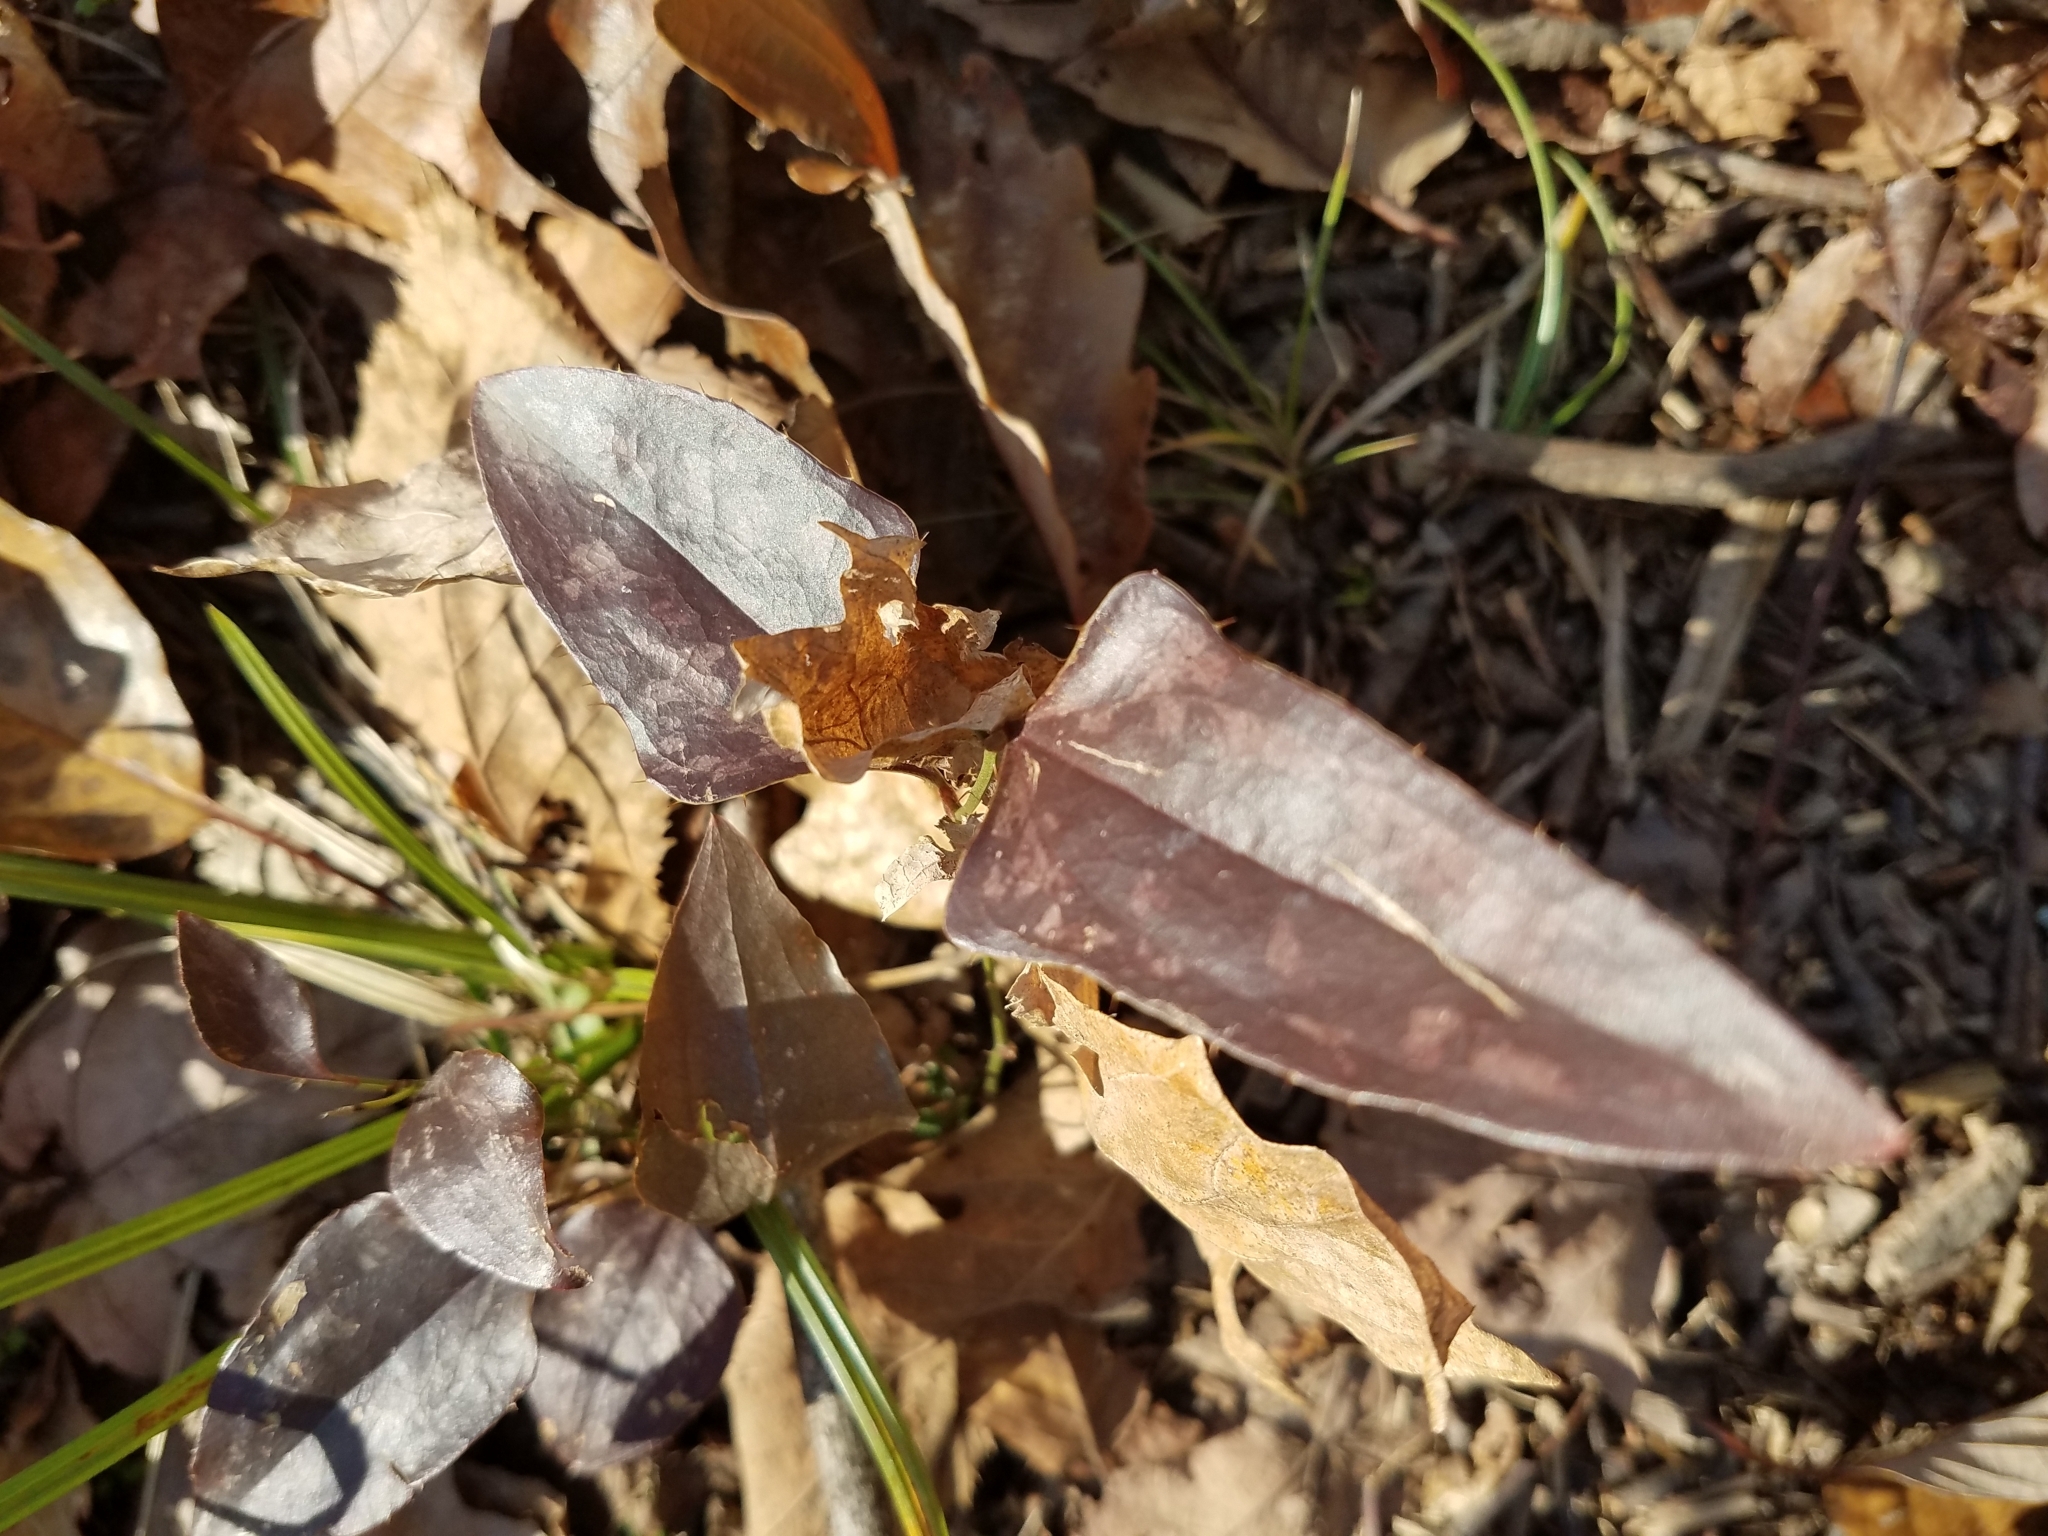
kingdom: Plantae
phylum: Tracheophyta
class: Liliopsida
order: Liliales
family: Smilacaceae
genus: Smilax
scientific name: Smilax bona-nox
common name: Catbrier
